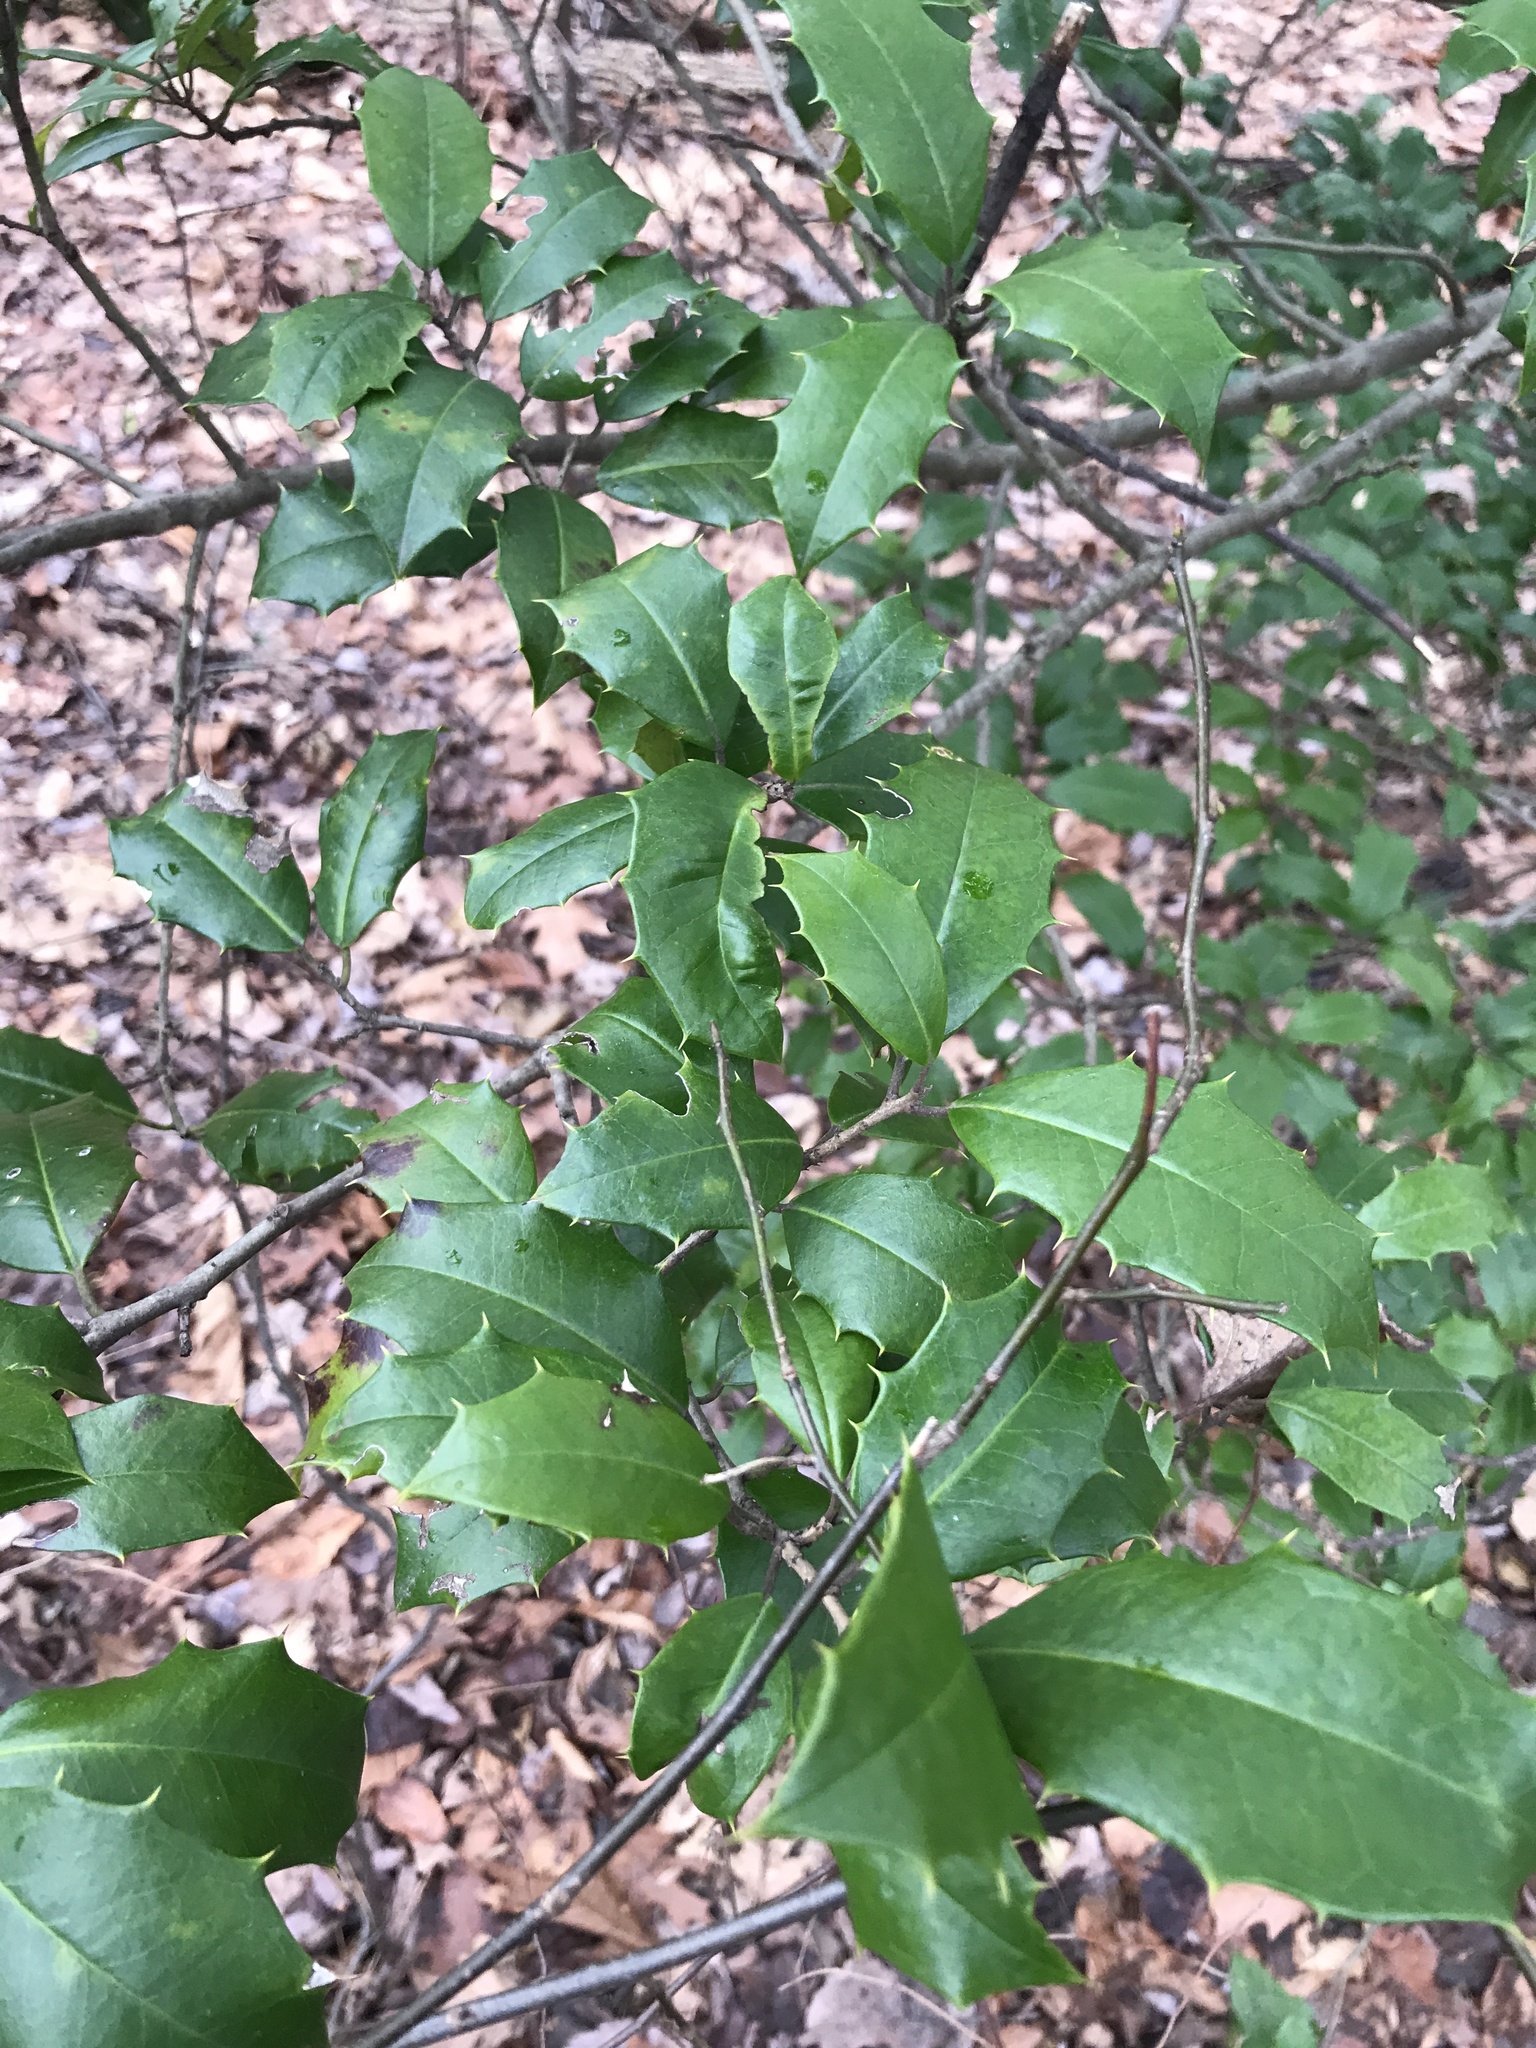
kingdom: Plantae
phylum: Tracheophyta
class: Magnoliopsida
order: Aquifoliales
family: Aquifoliaceae
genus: Ilex
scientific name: Ilex opaca
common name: American holly
